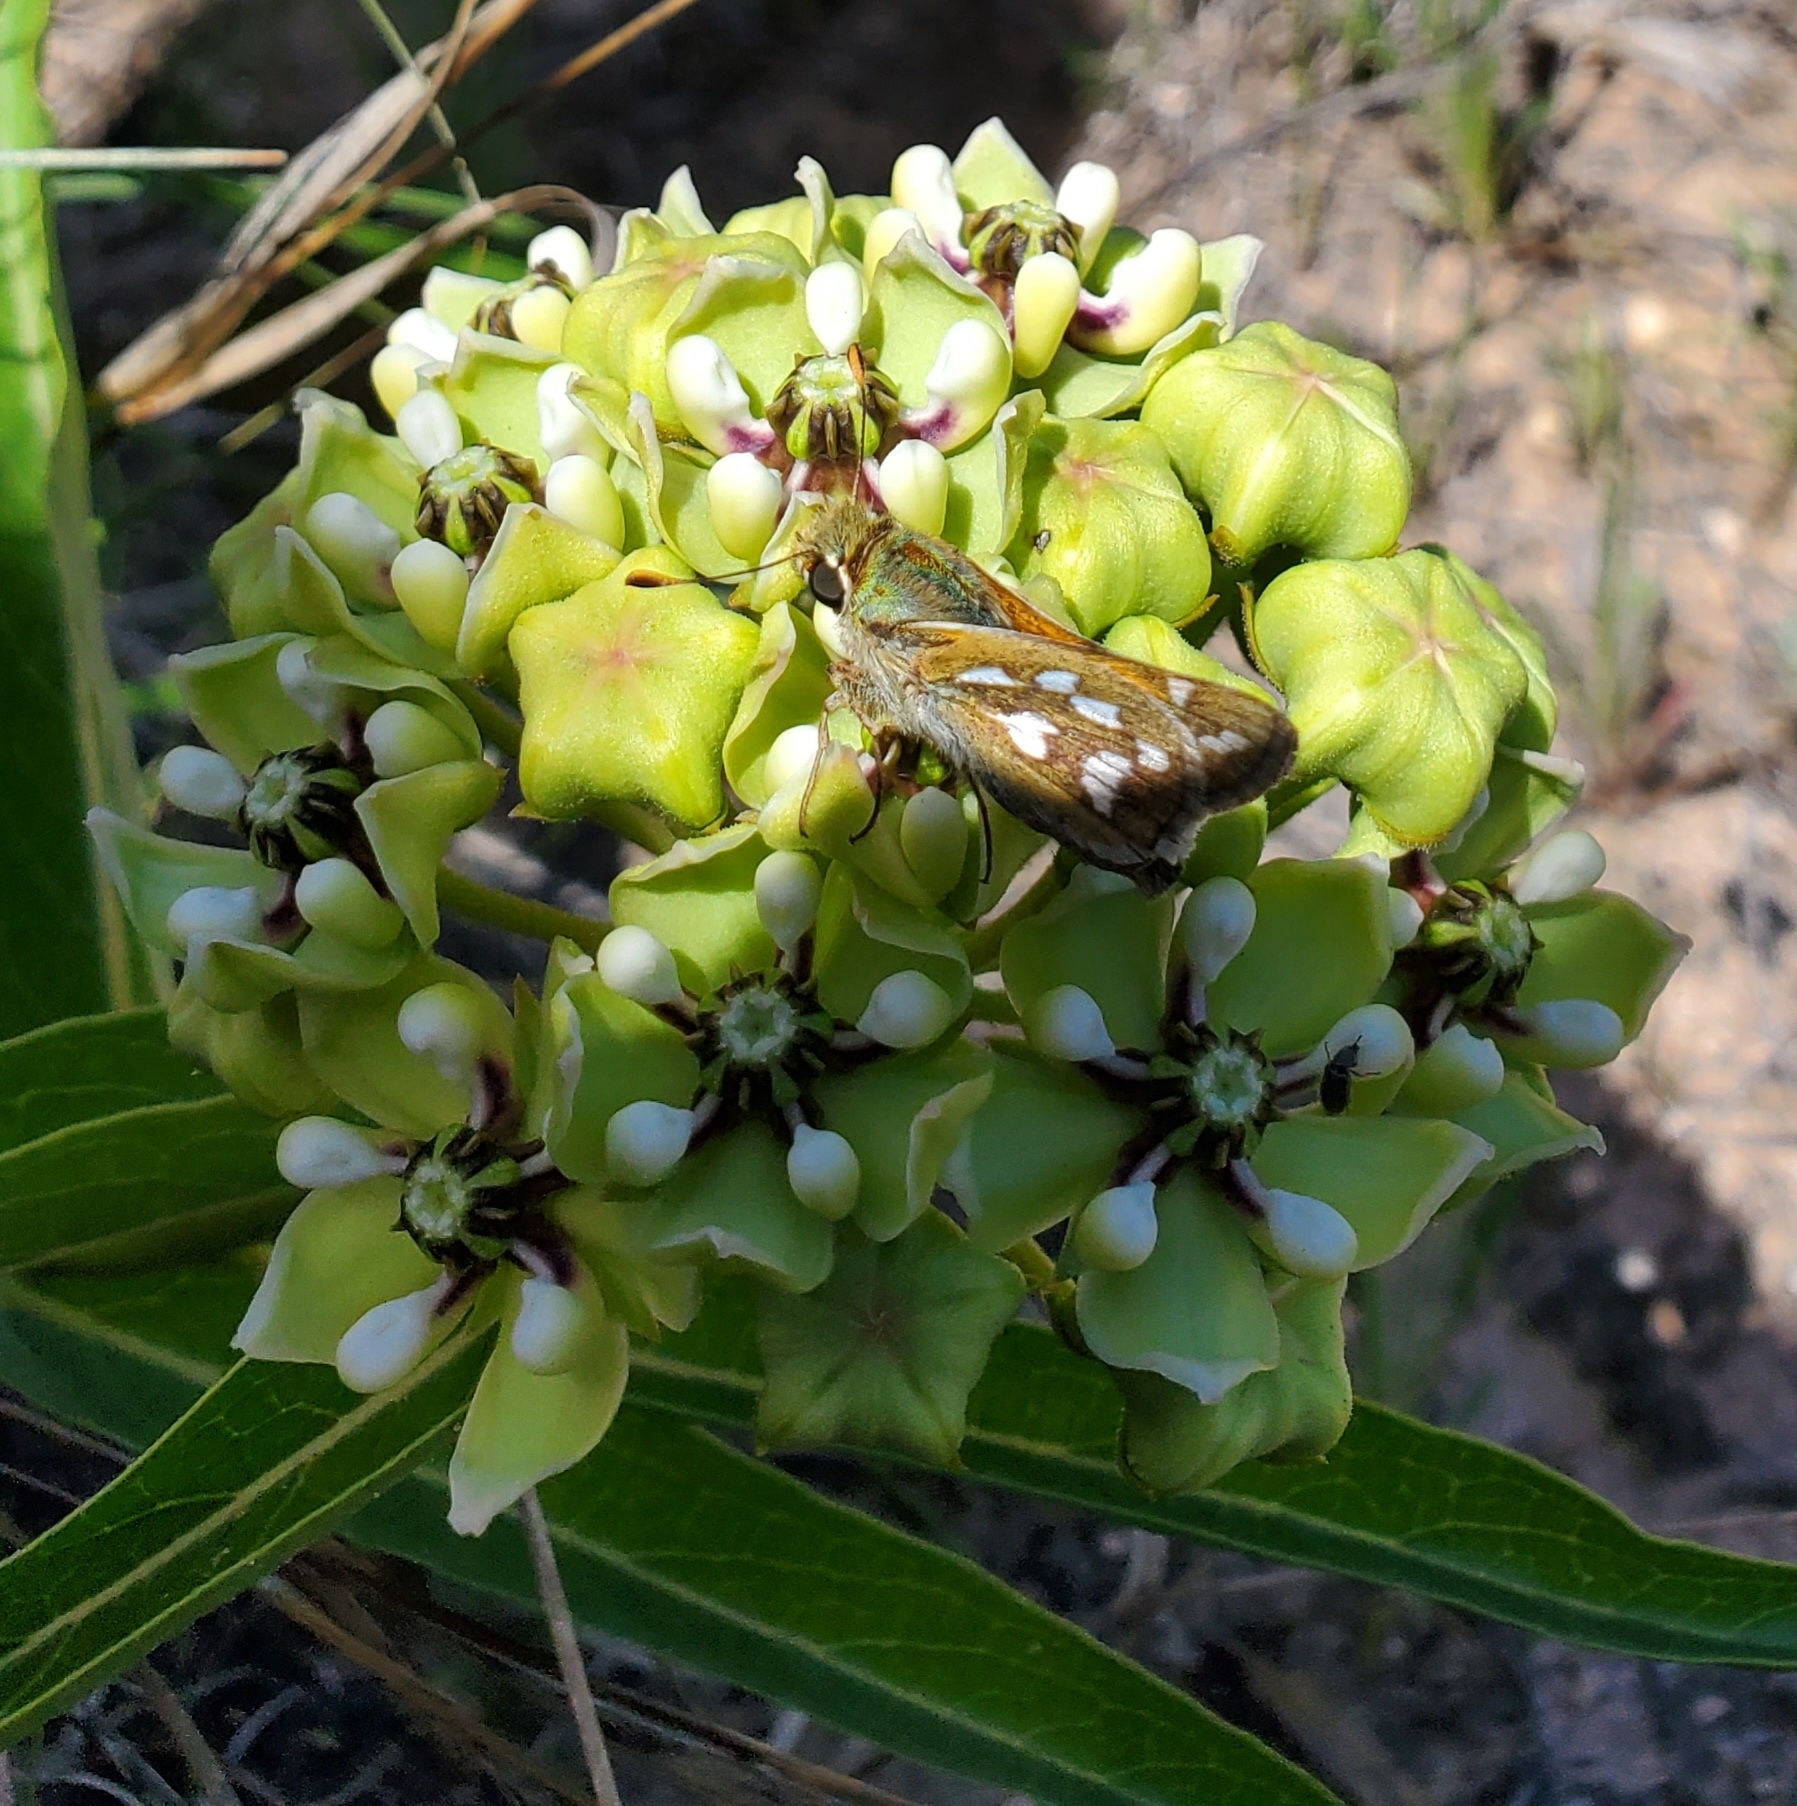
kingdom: Animalia
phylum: Arthropoda
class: Insecta
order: Lepidoptera
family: Hesperiidae
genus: Hesperia
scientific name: Hesperia viridis
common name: Green skipper
